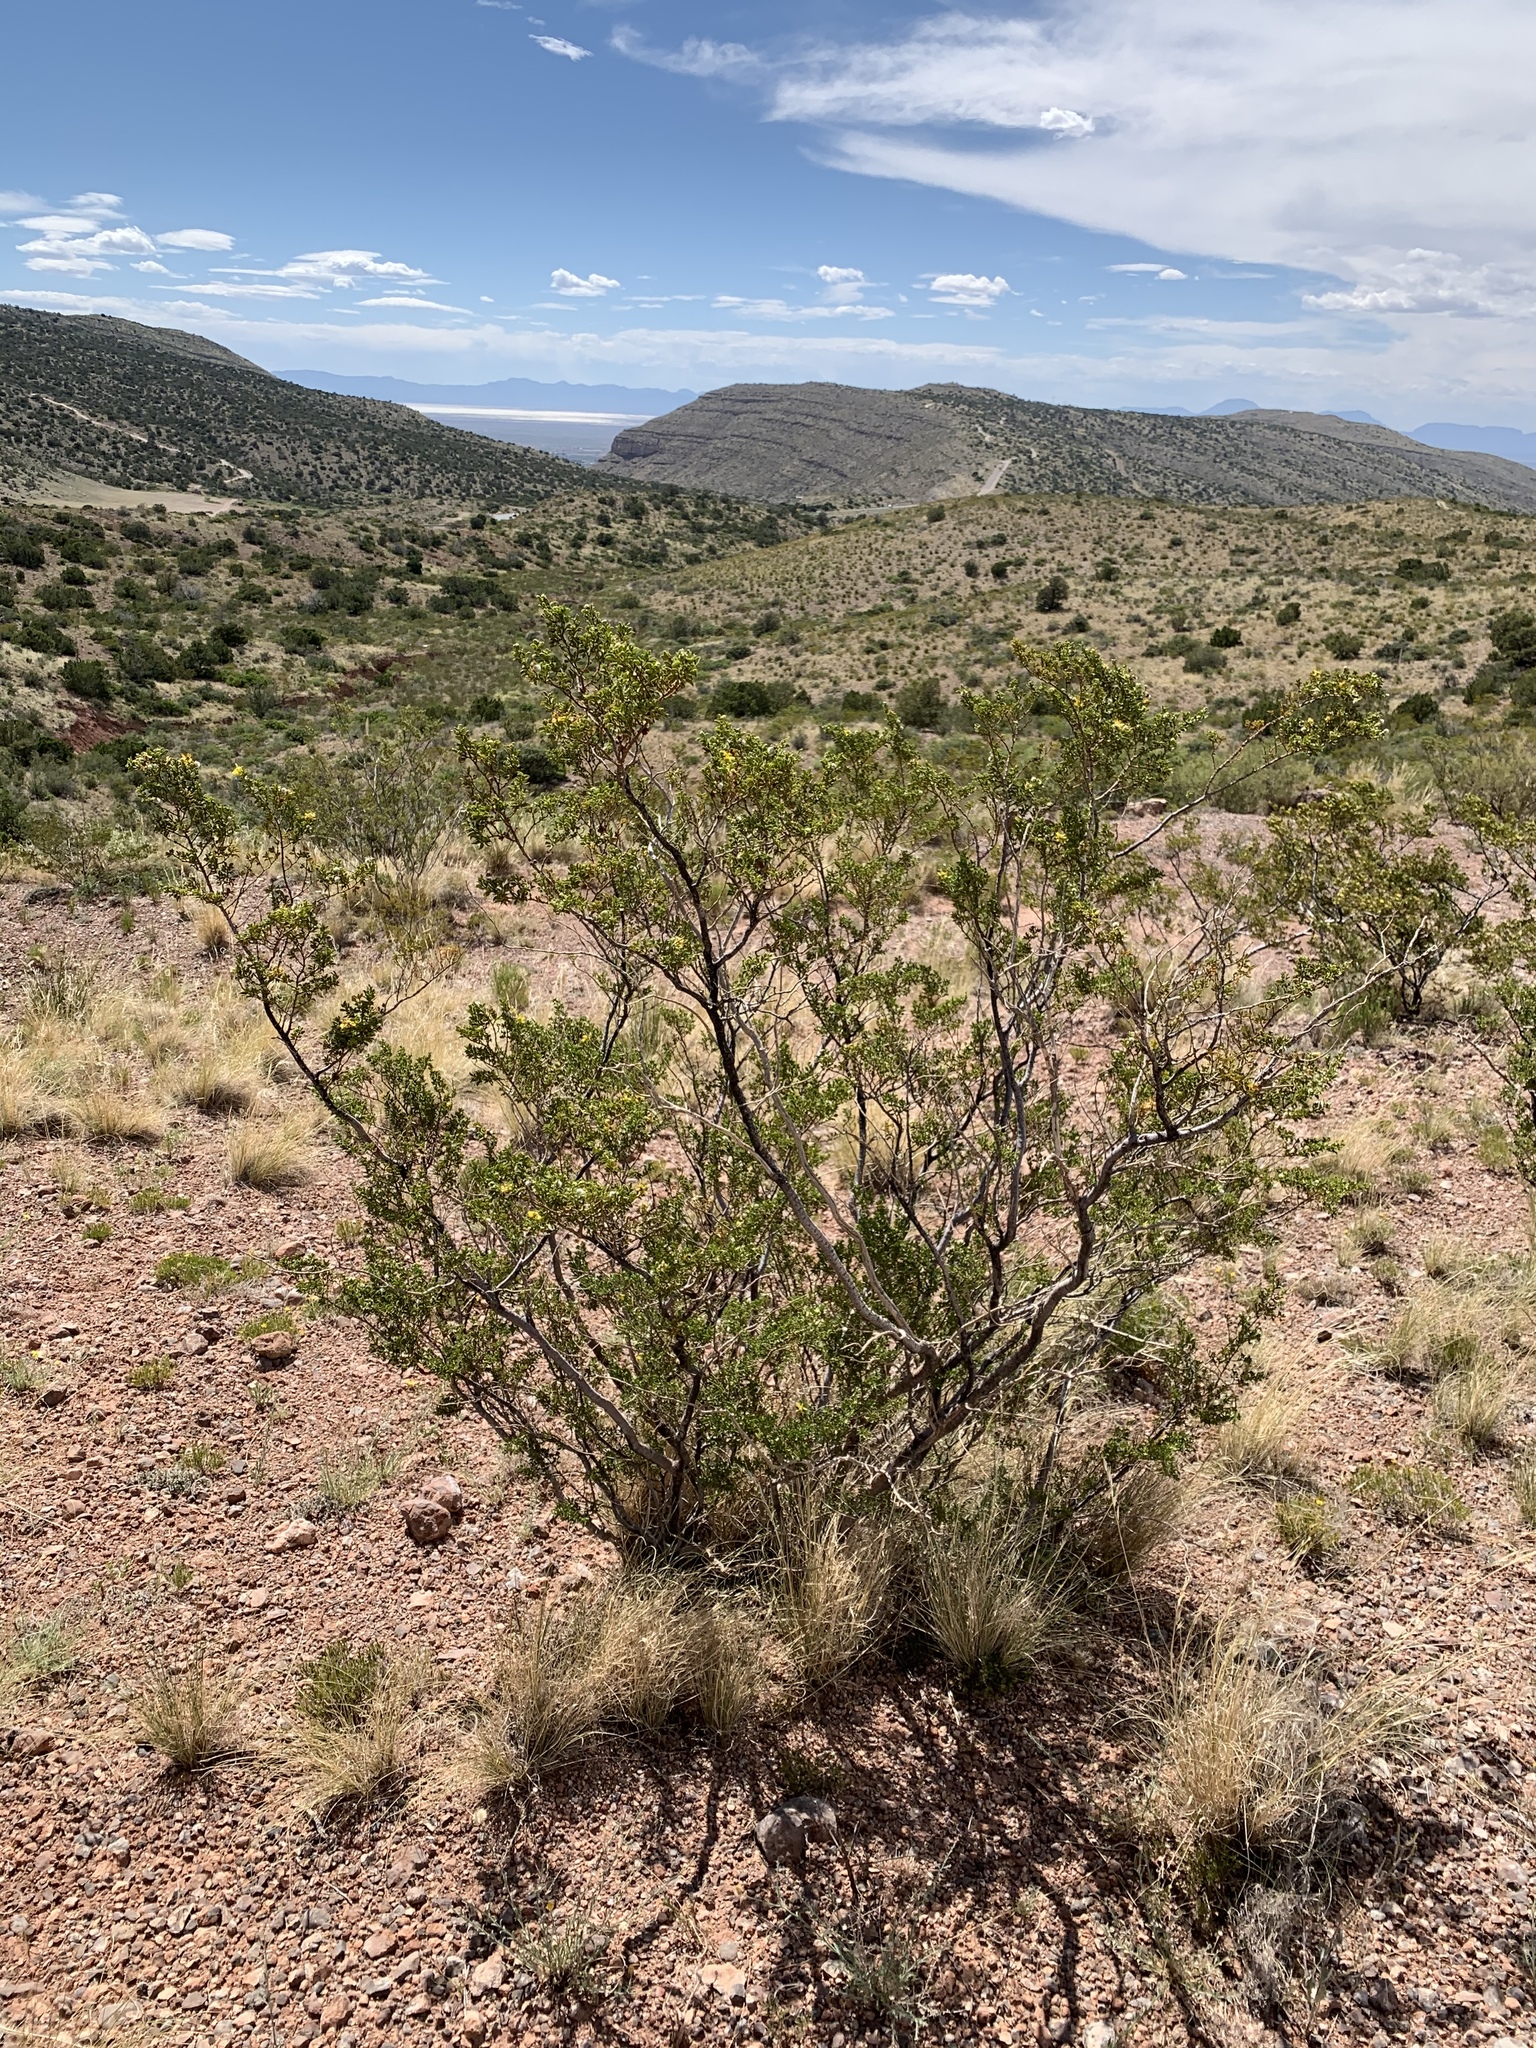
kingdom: Plantae
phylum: Tracheophyta
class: Magnoliopsida
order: Zygophyllales
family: Zygophyllaceae
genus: Larrea
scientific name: Larrea tridentata
